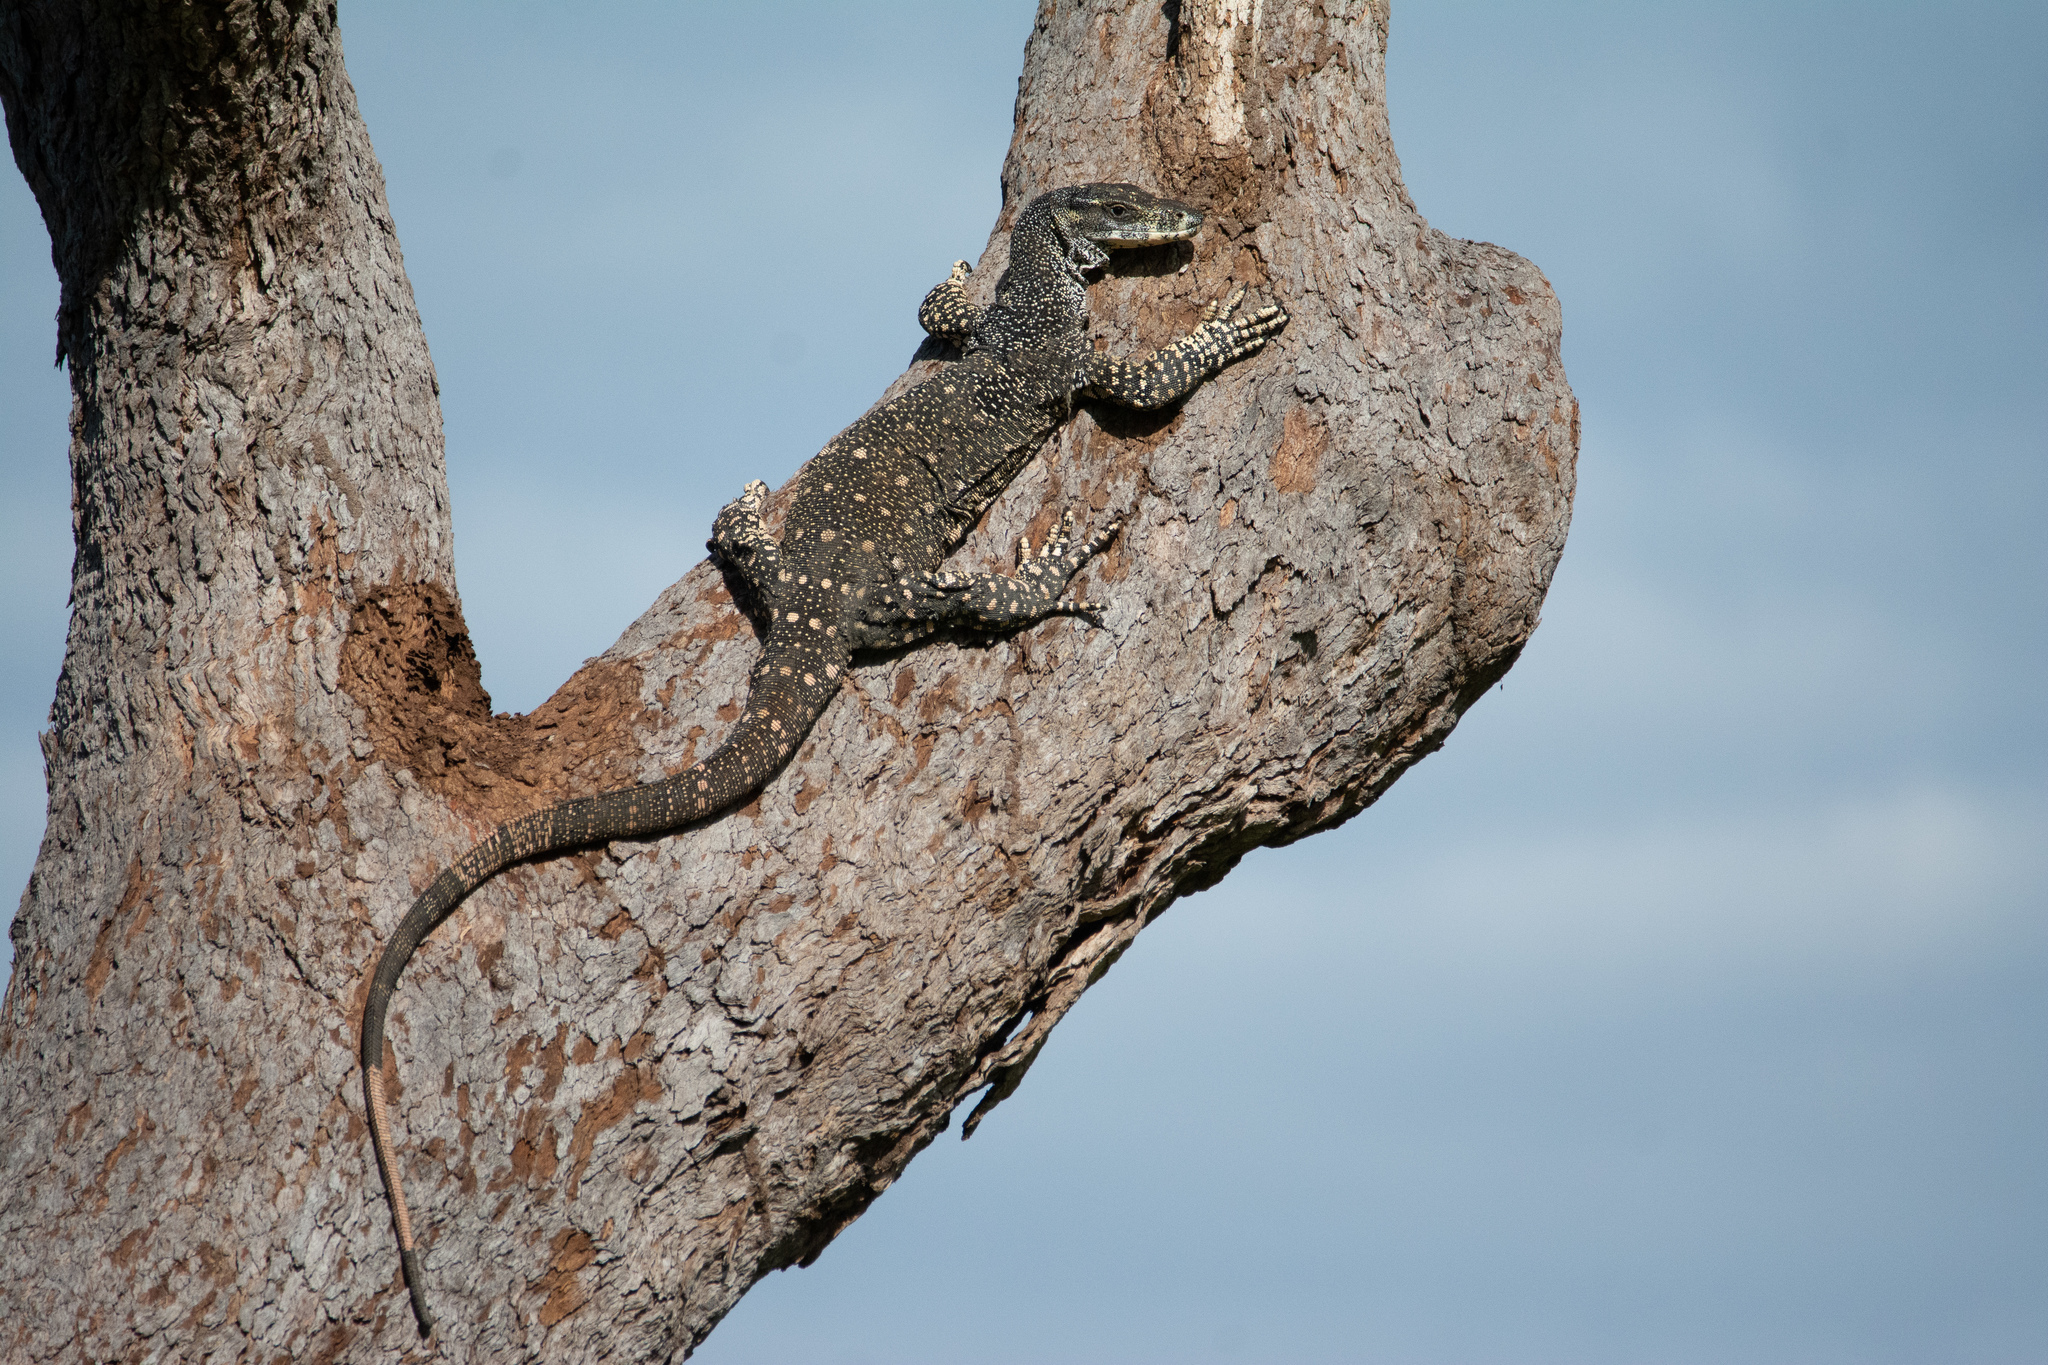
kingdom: Animalia
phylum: Chordata
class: Squamata
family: Varanidae
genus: Varanus
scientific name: Varanus varius
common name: Lace monitor
